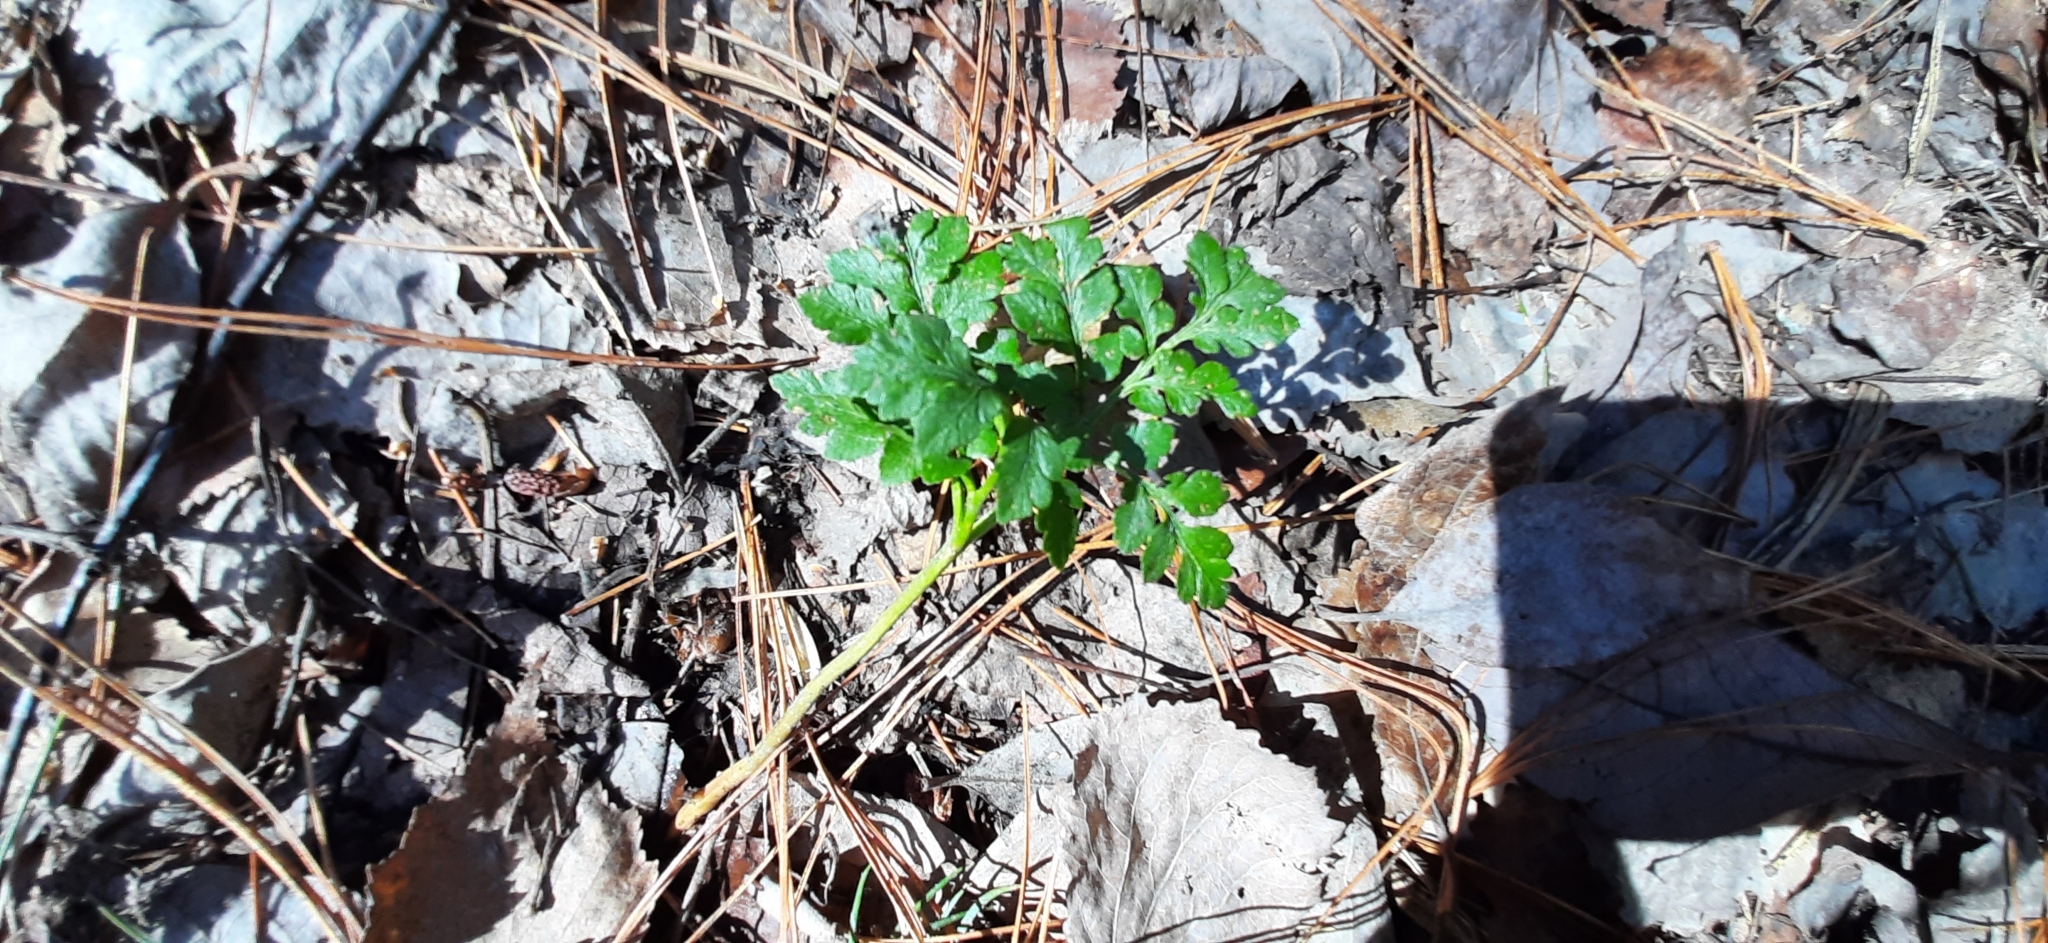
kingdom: Plantae
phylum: Tracheophyta
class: Polypodiopsida
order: Ophioglossales
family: Ophioglossaceae
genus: Sceptridium
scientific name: Sceptridium multifidum
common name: Leathery grape fern
